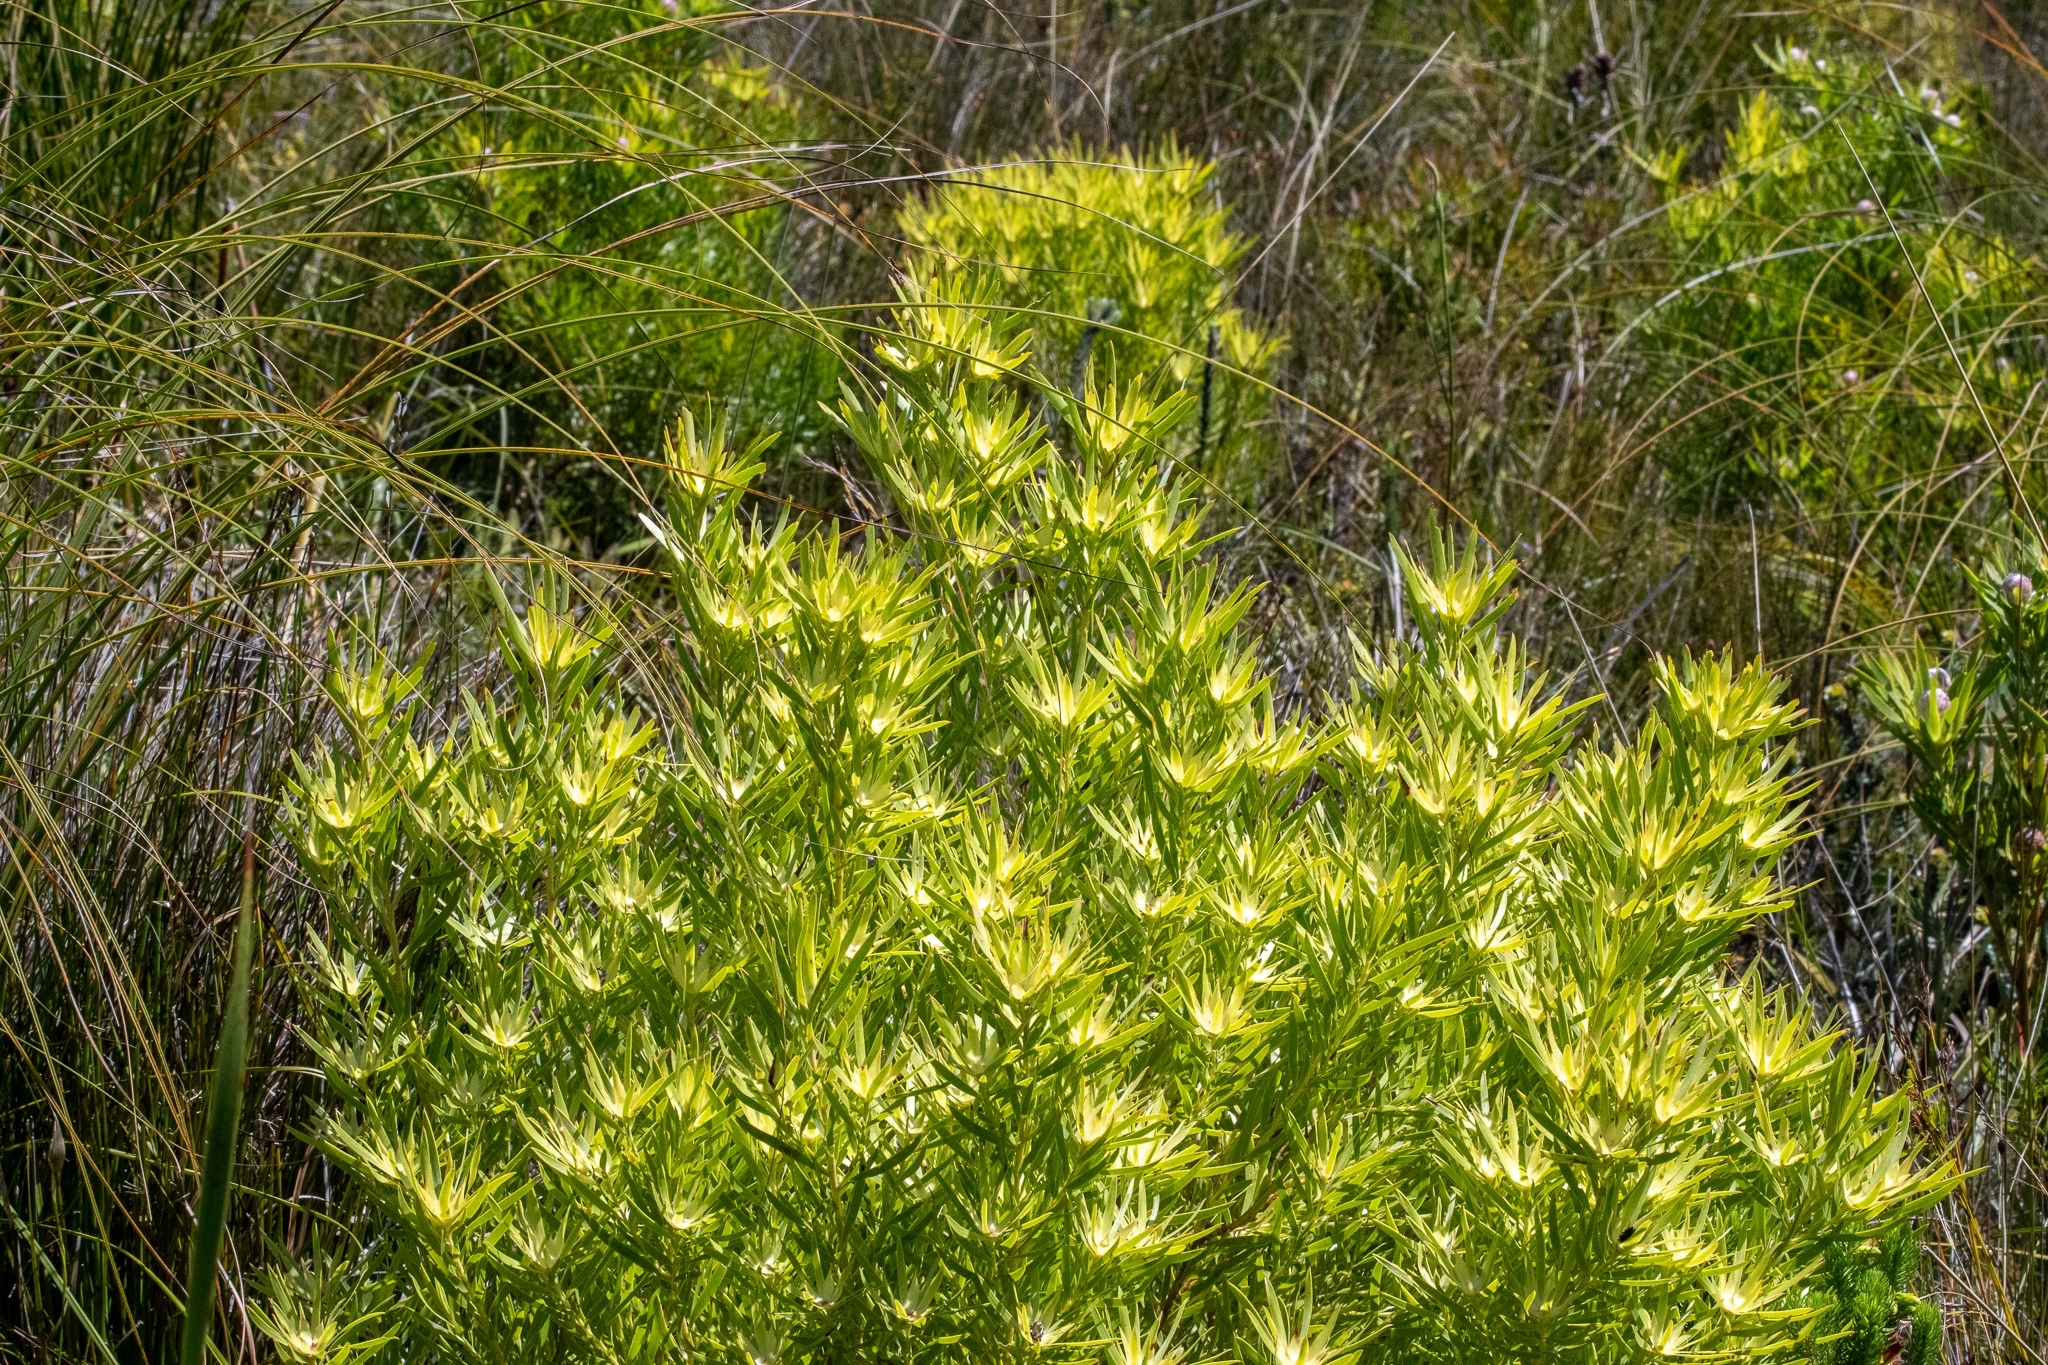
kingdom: Plantae
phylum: Tracheophyta
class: Magnoliopsida
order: Proteales
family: Proteaceae
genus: Leucadendron
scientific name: Leucadendron xanthoconus
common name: Sickle-leaf conebush
